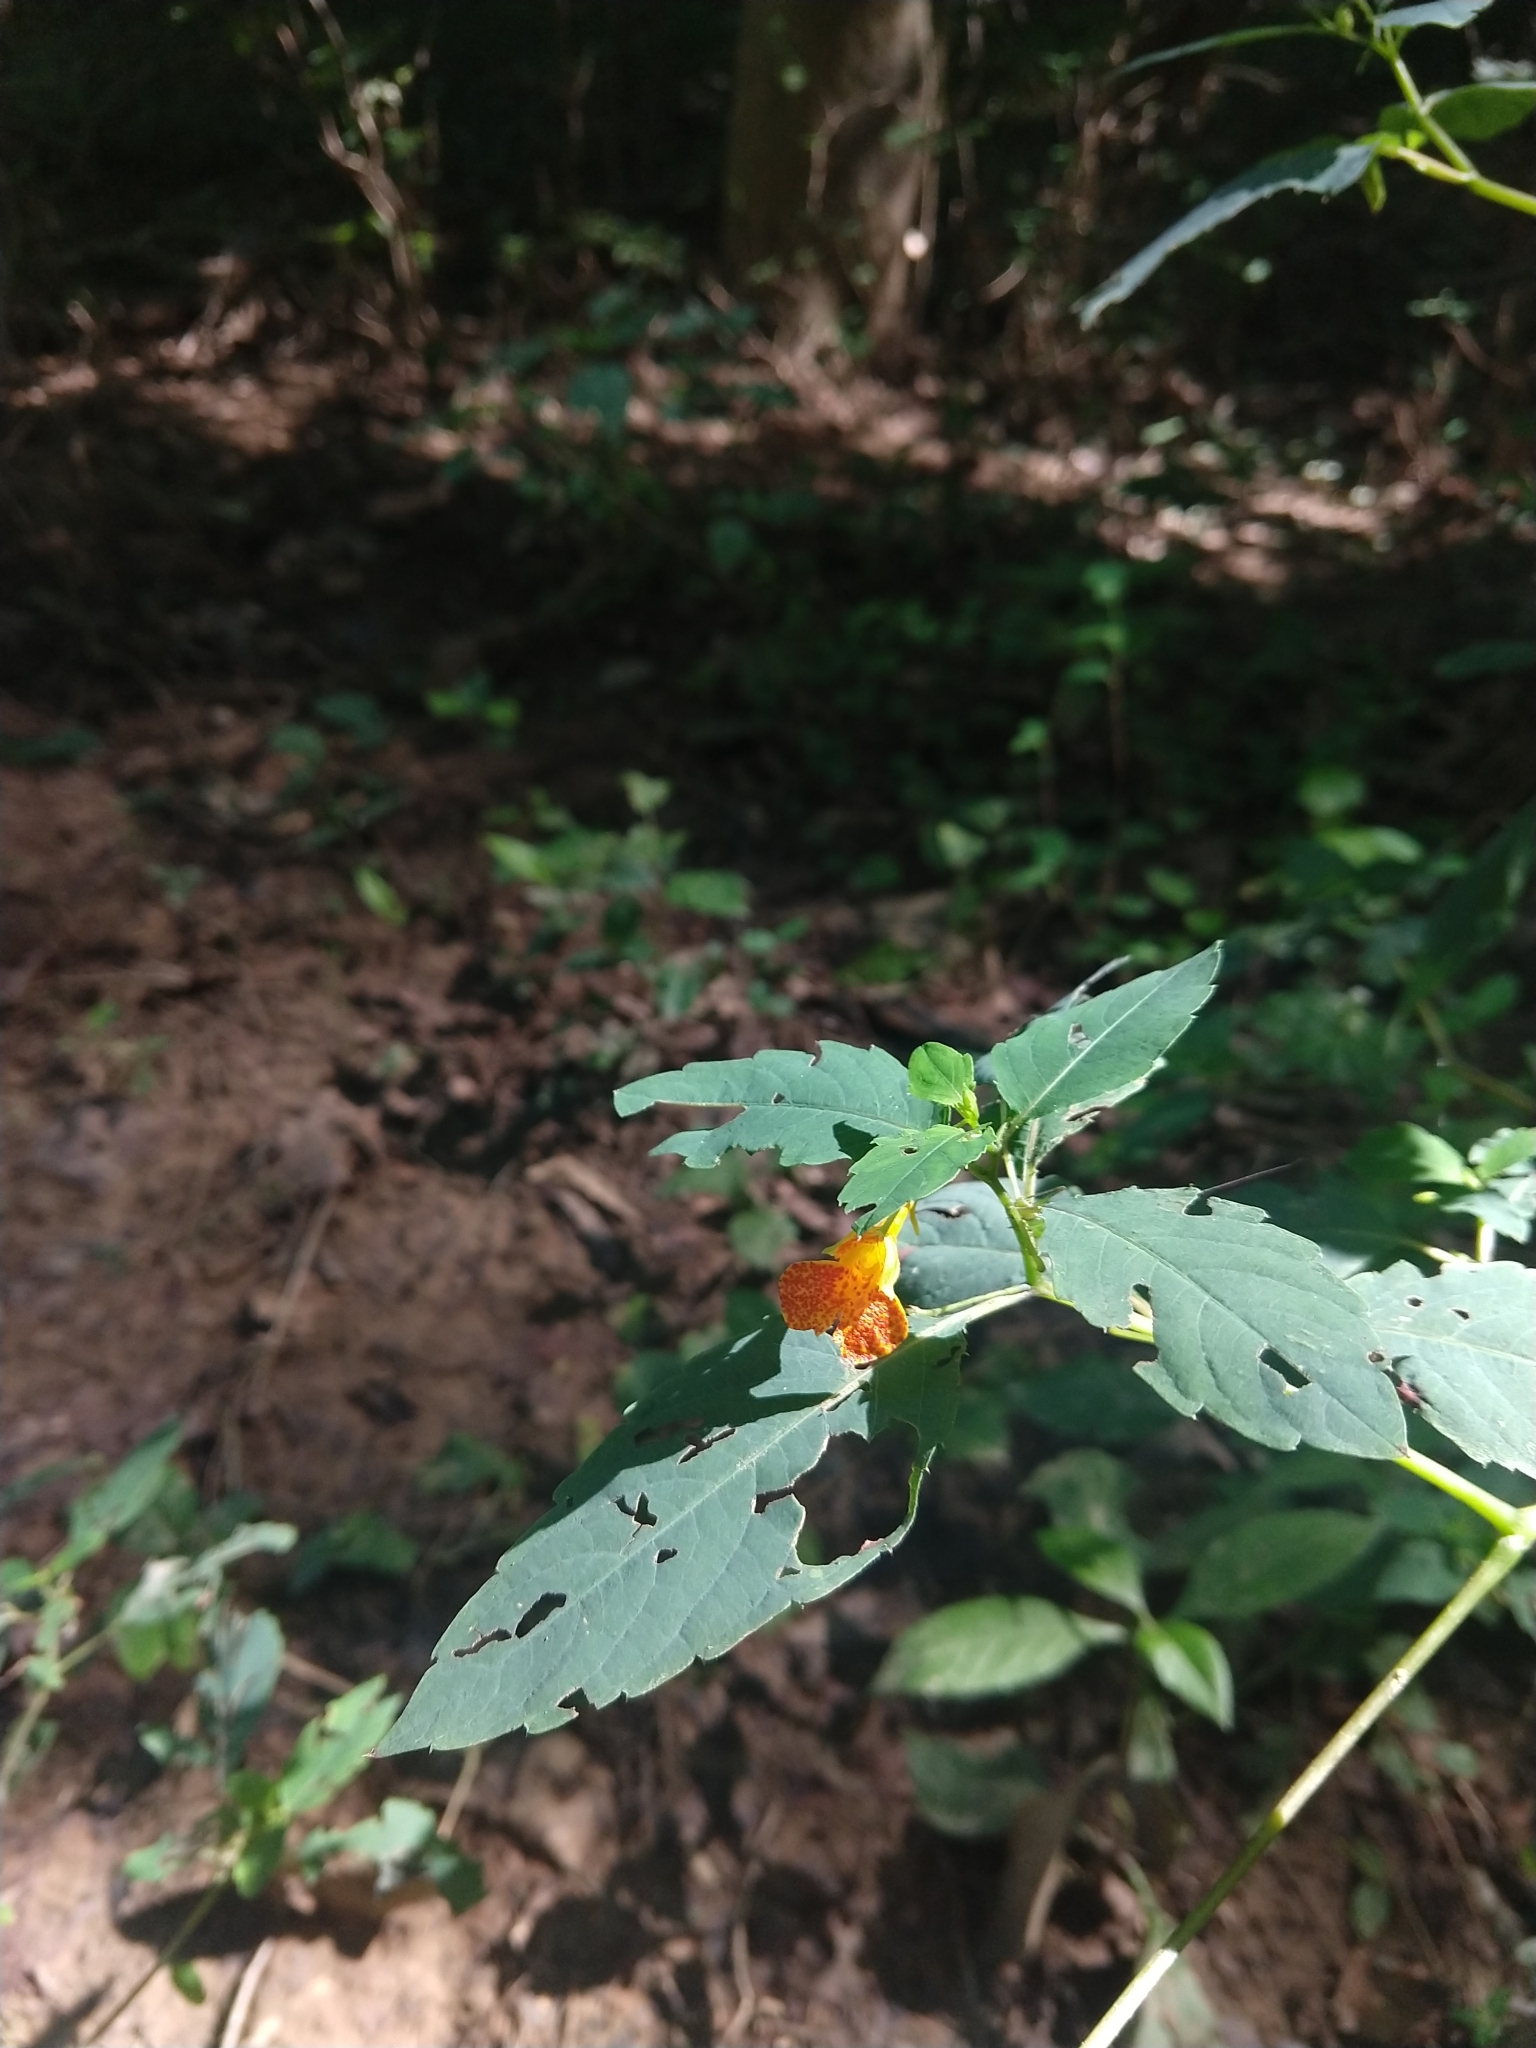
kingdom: Plantae
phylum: Tracheophyta
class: Magnoliopsida
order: Ericales
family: Balsaminaceae
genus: Impatiens
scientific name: Impatiens capensis
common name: Orange balsam
